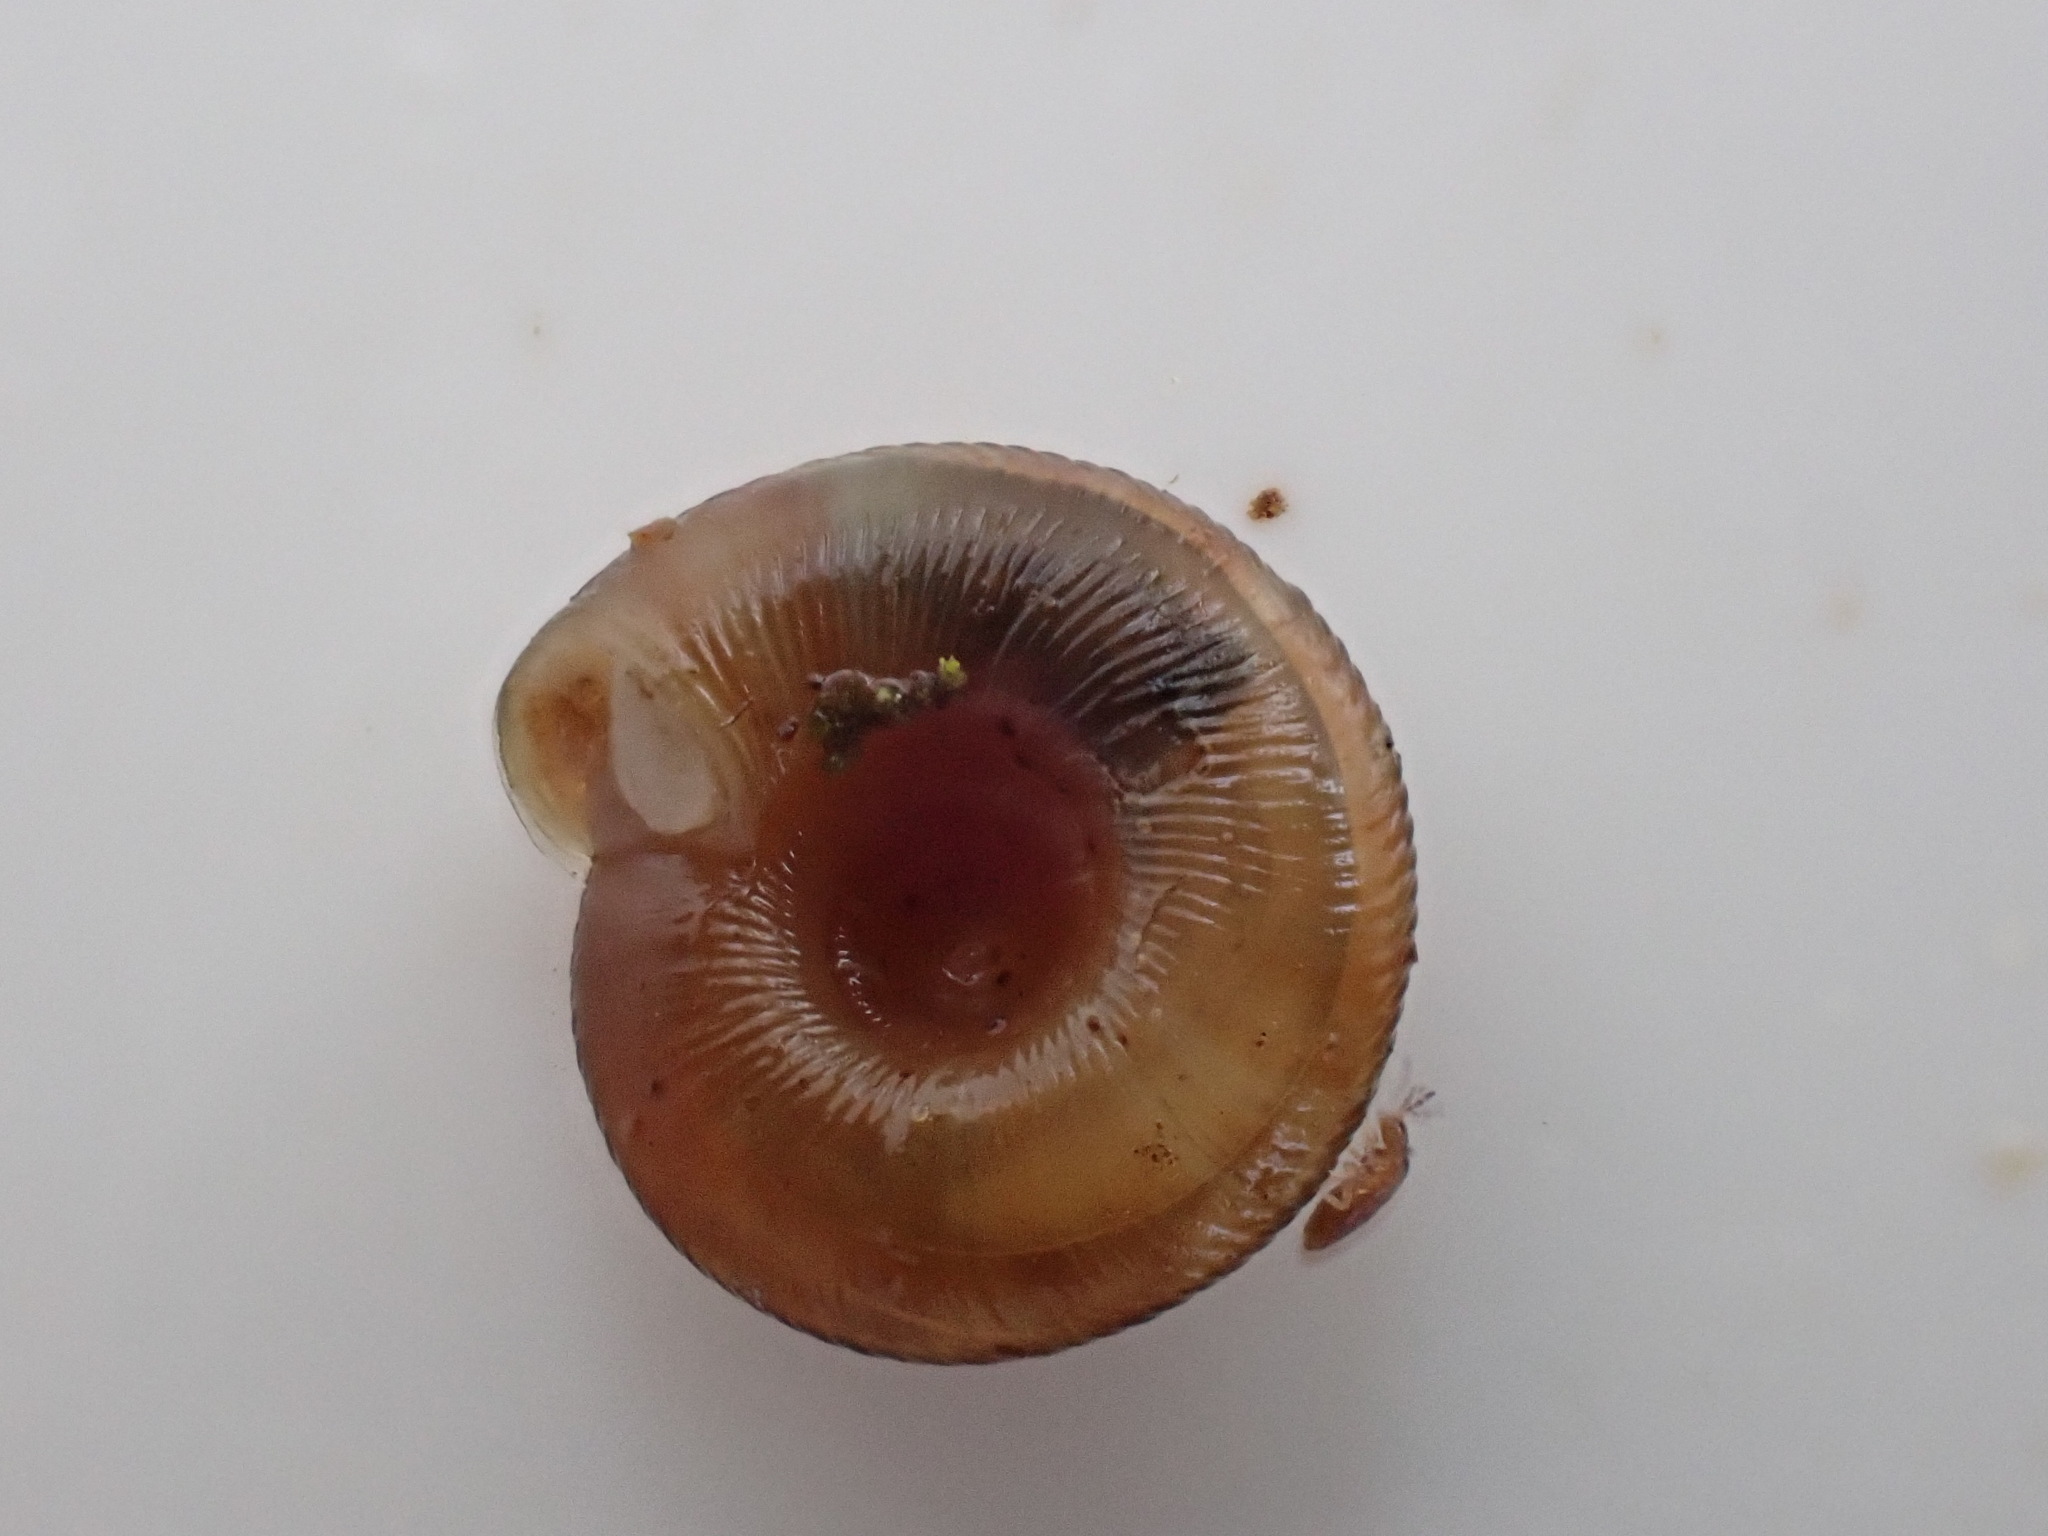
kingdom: Animalia
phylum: Mollusca
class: Gastropoda
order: Stylommatophora
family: Discidae
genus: Discus
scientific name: Discus rotundatus
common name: Rounded snail
